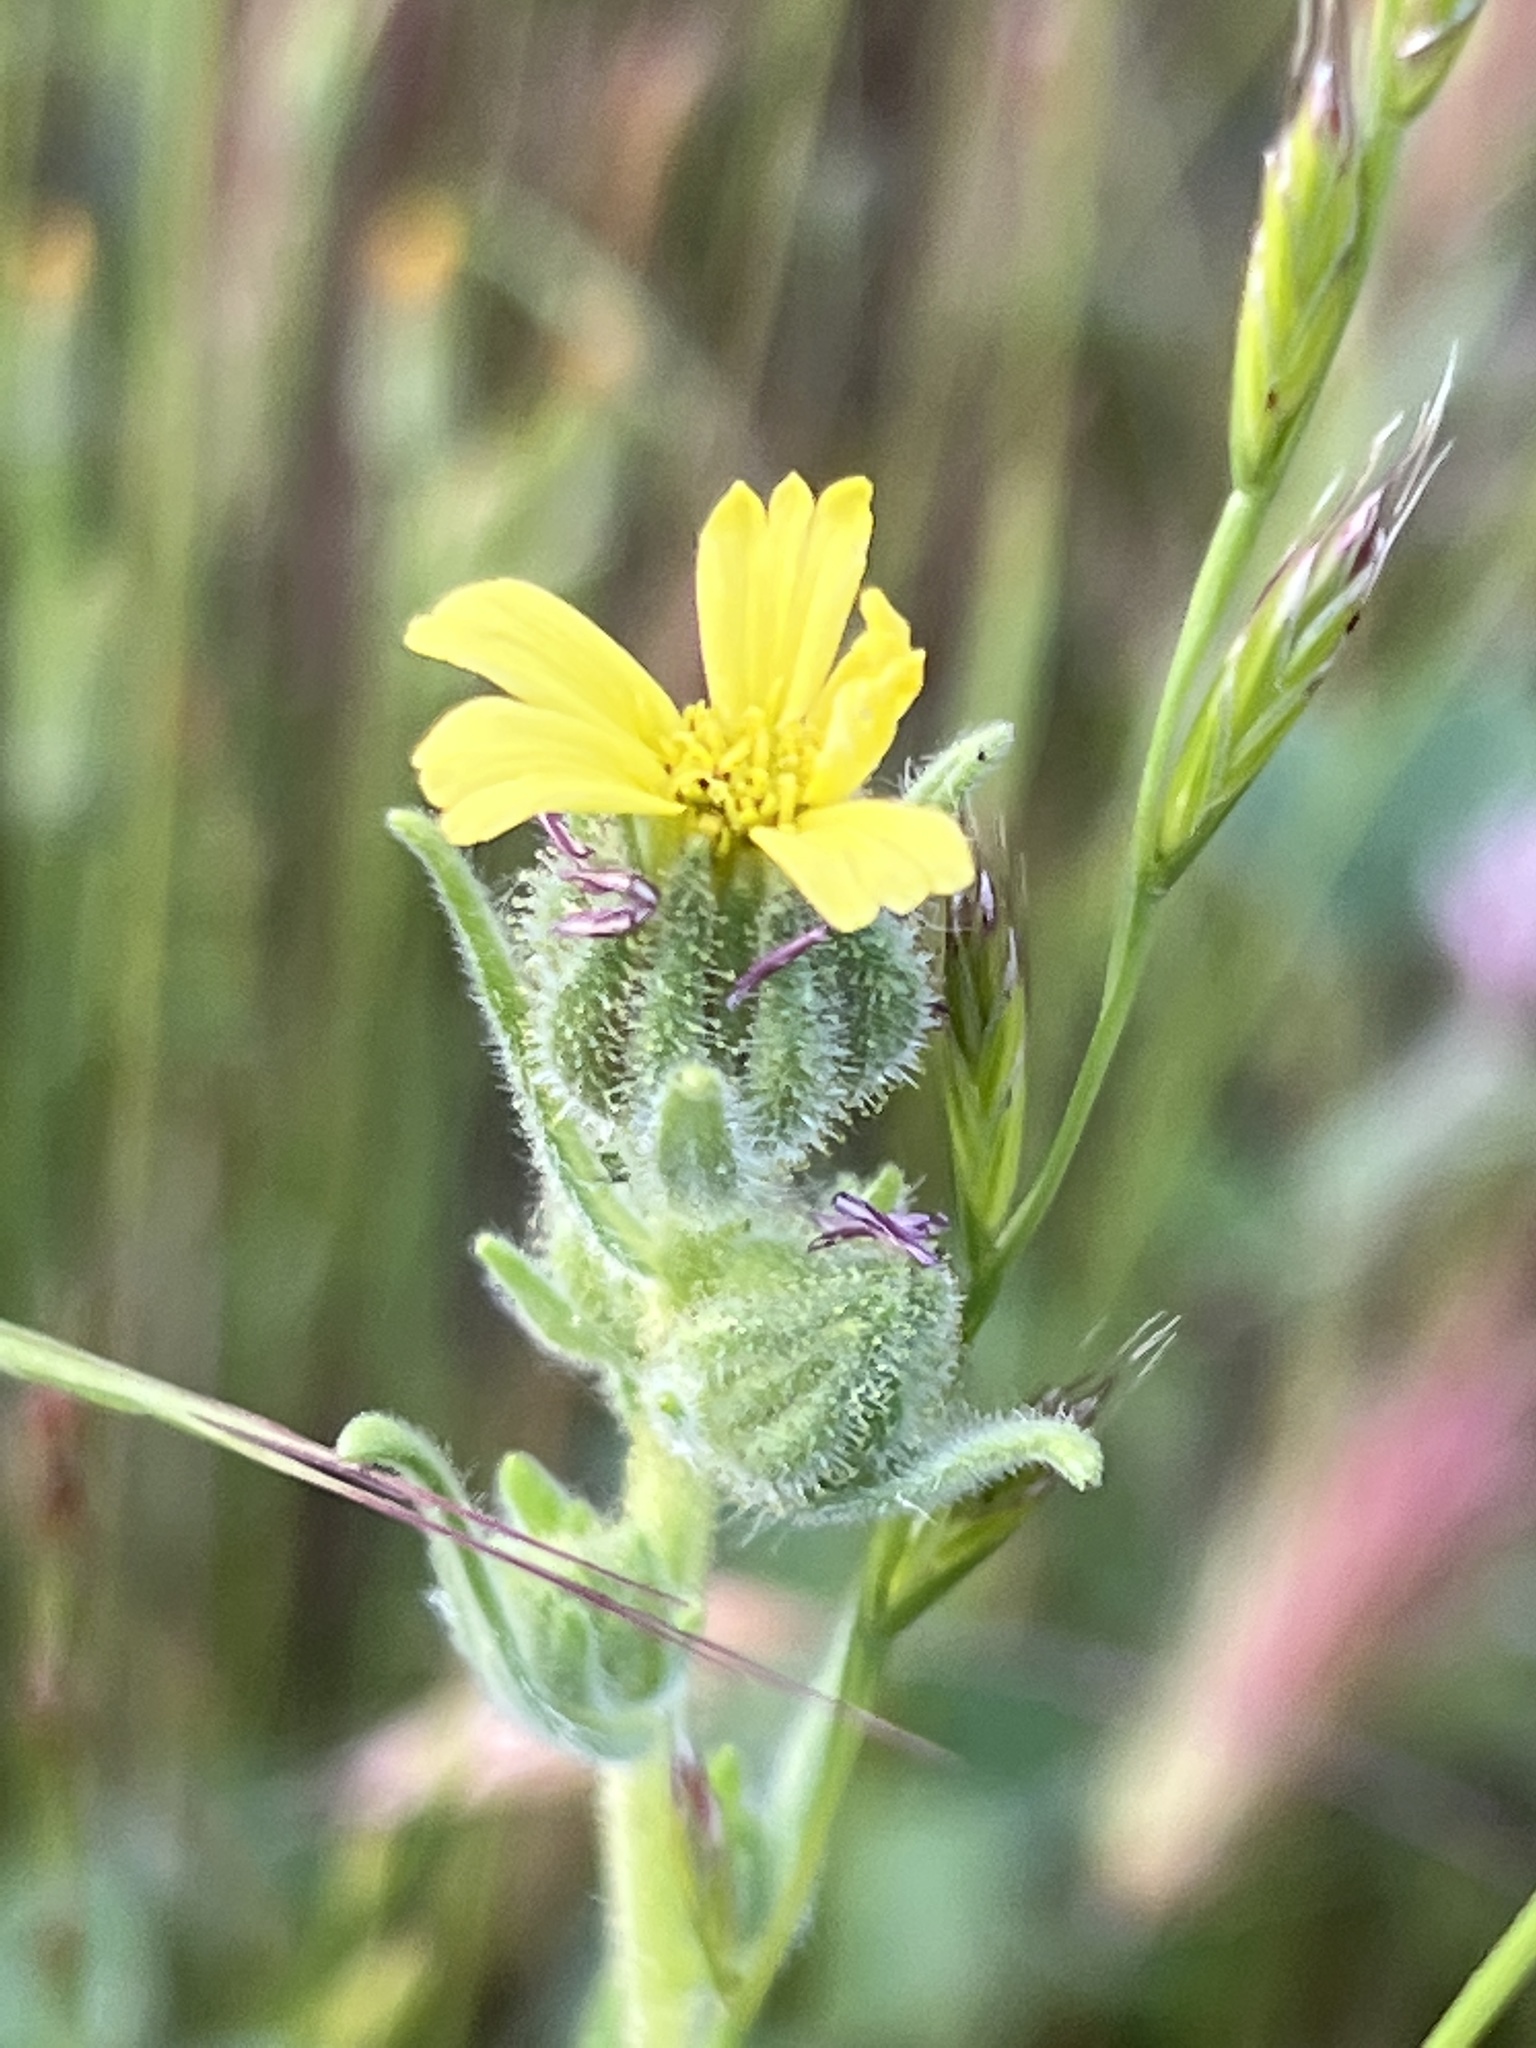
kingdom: Plantae
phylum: Tracheophyta
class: Magnoliopsida
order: Asterales
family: Asteraceae
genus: Madia
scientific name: Madia gracilis
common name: Grassy tarweed
